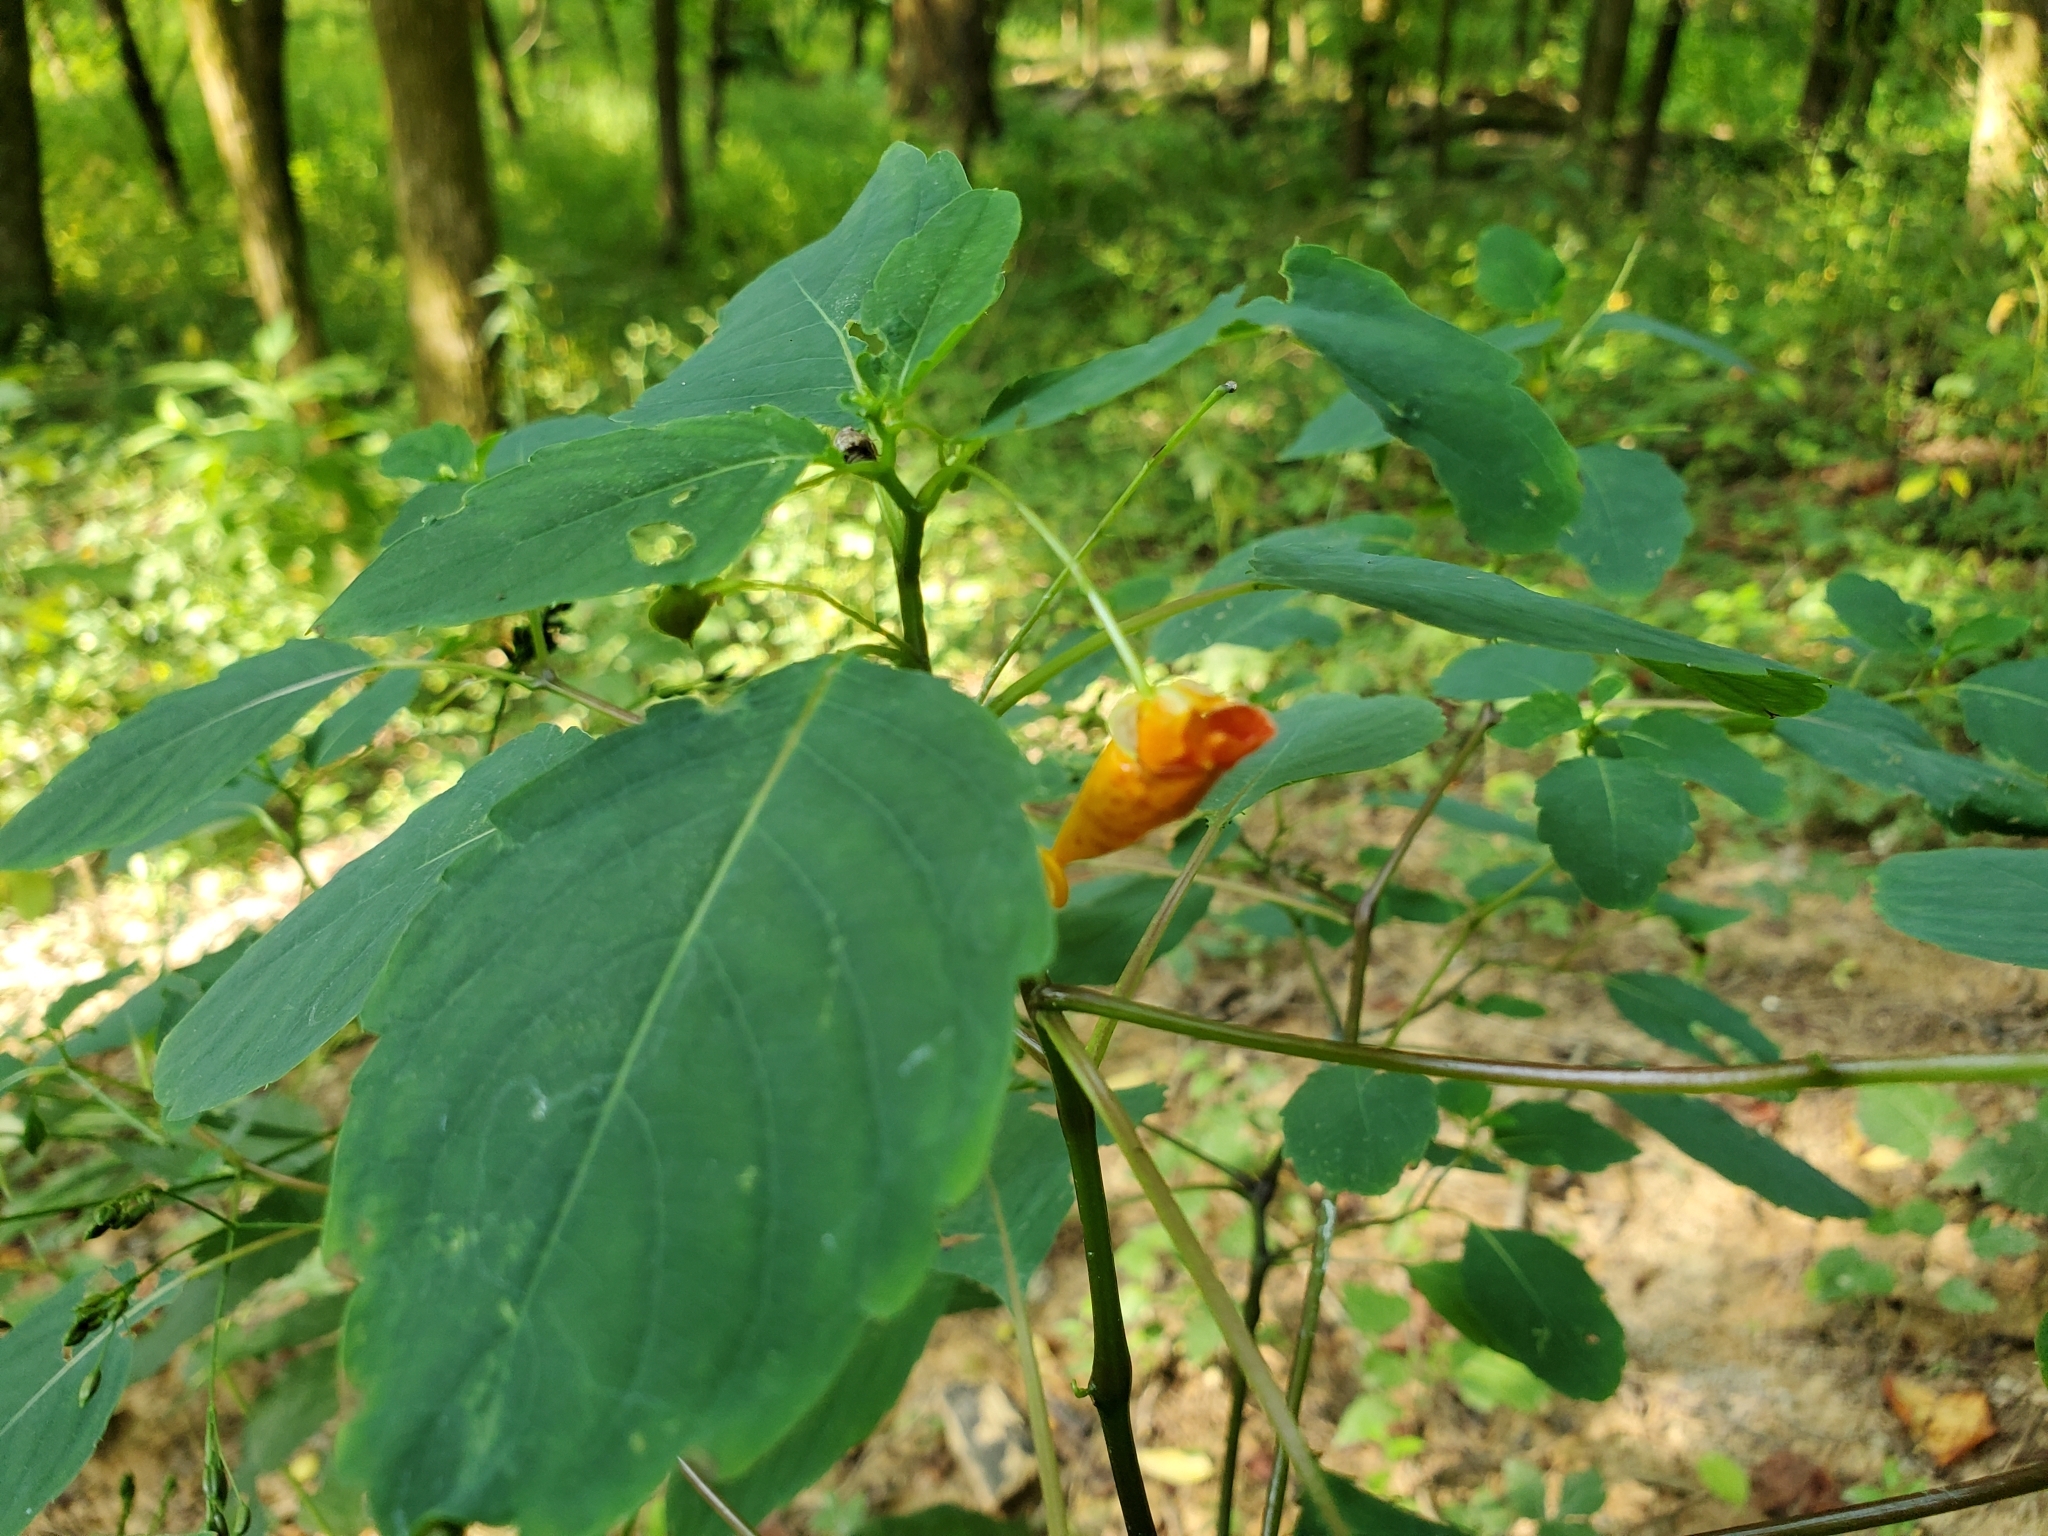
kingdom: Plantae
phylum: Tracheophyta
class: Magnoliopsida
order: Ericales
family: Balsaminaceae
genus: Impatiens
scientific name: Impatiens capensis
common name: Orange balsam
